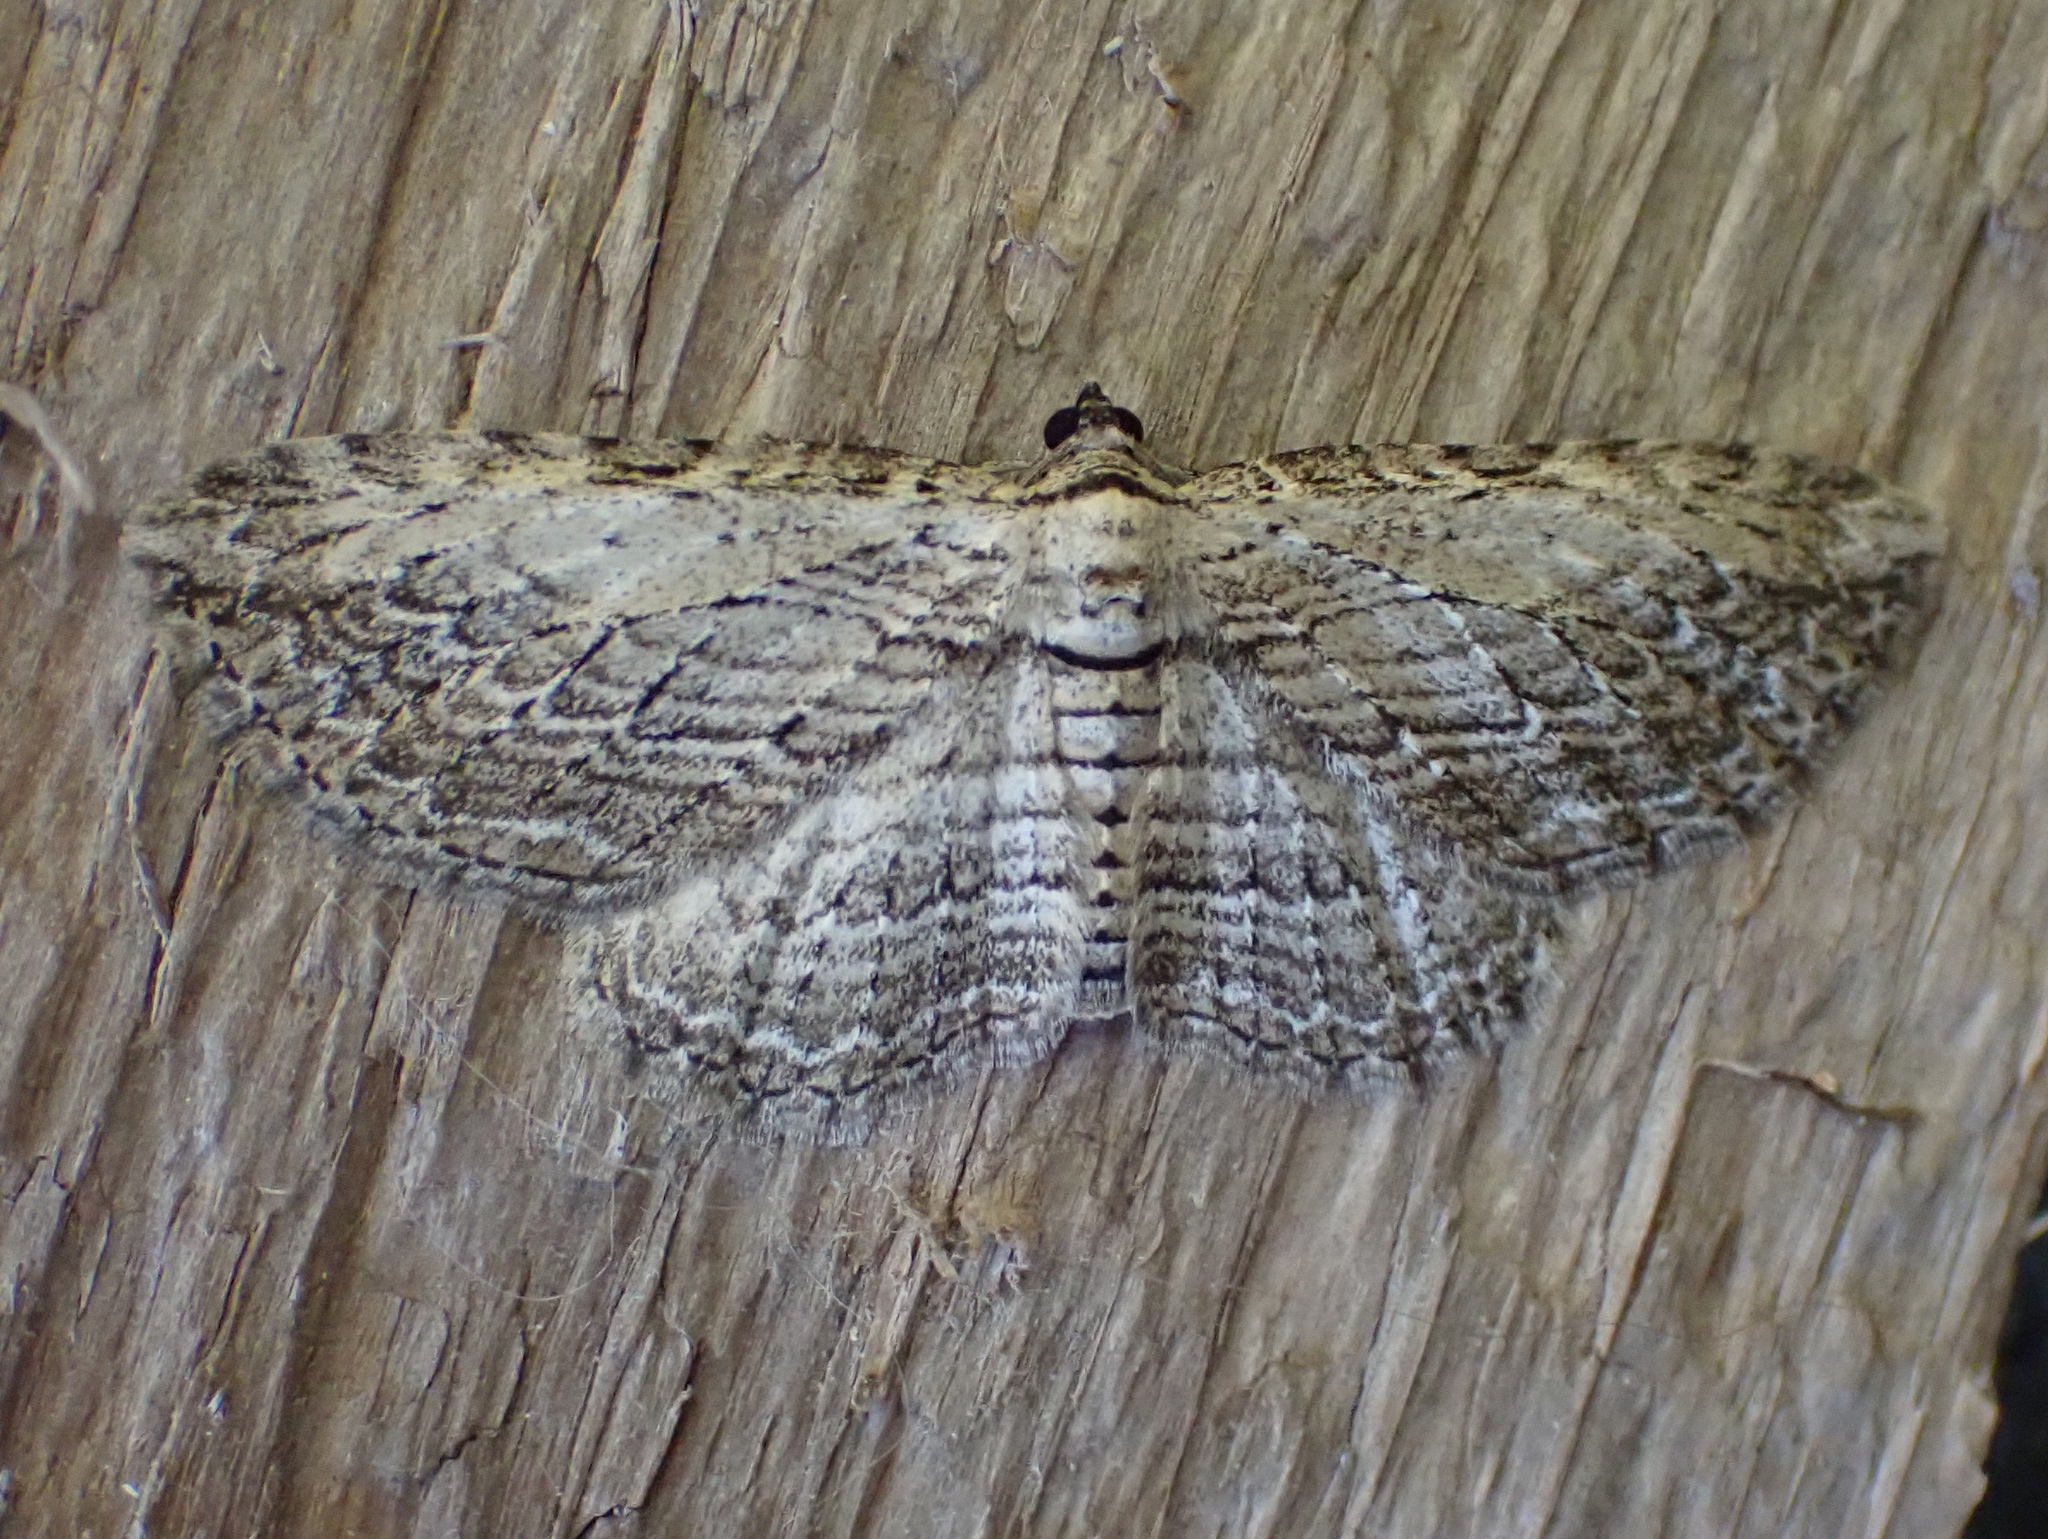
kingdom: Animalia
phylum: Arthropoda
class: Insecta
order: Lepidoptera
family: Geometridae
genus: Horisme
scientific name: Horisme intestinata
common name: Brown bark carpet
